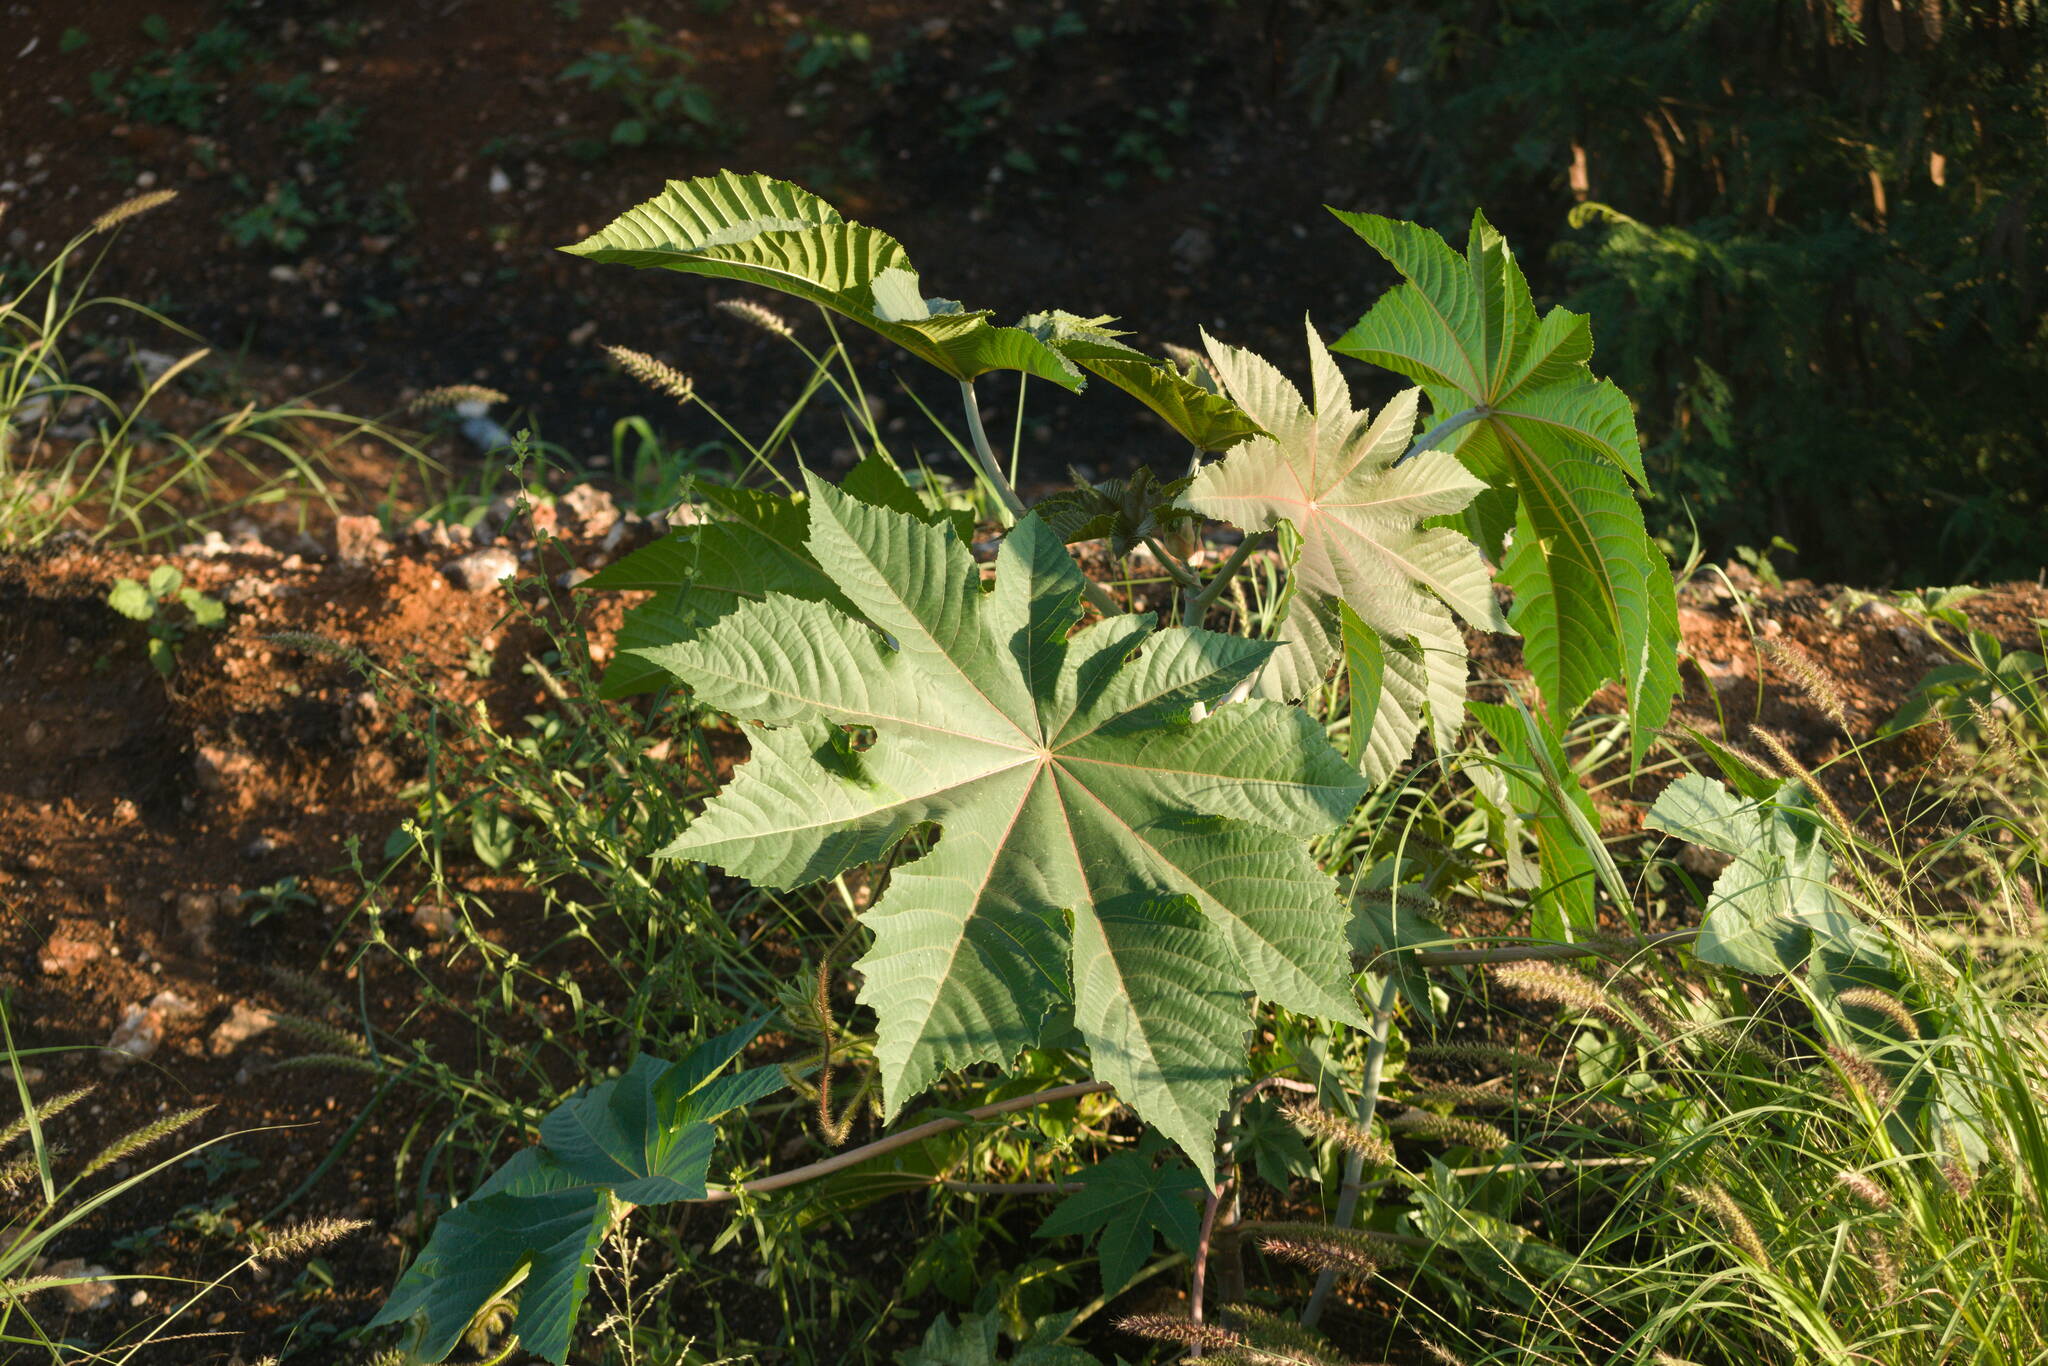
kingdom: Plantae
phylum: Tracheophyta
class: Magnoliopsida
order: Malpighiales
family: Euphorbiaceae
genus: Ricinus
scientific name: Ricinus communis
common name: Castor-oil-plant
